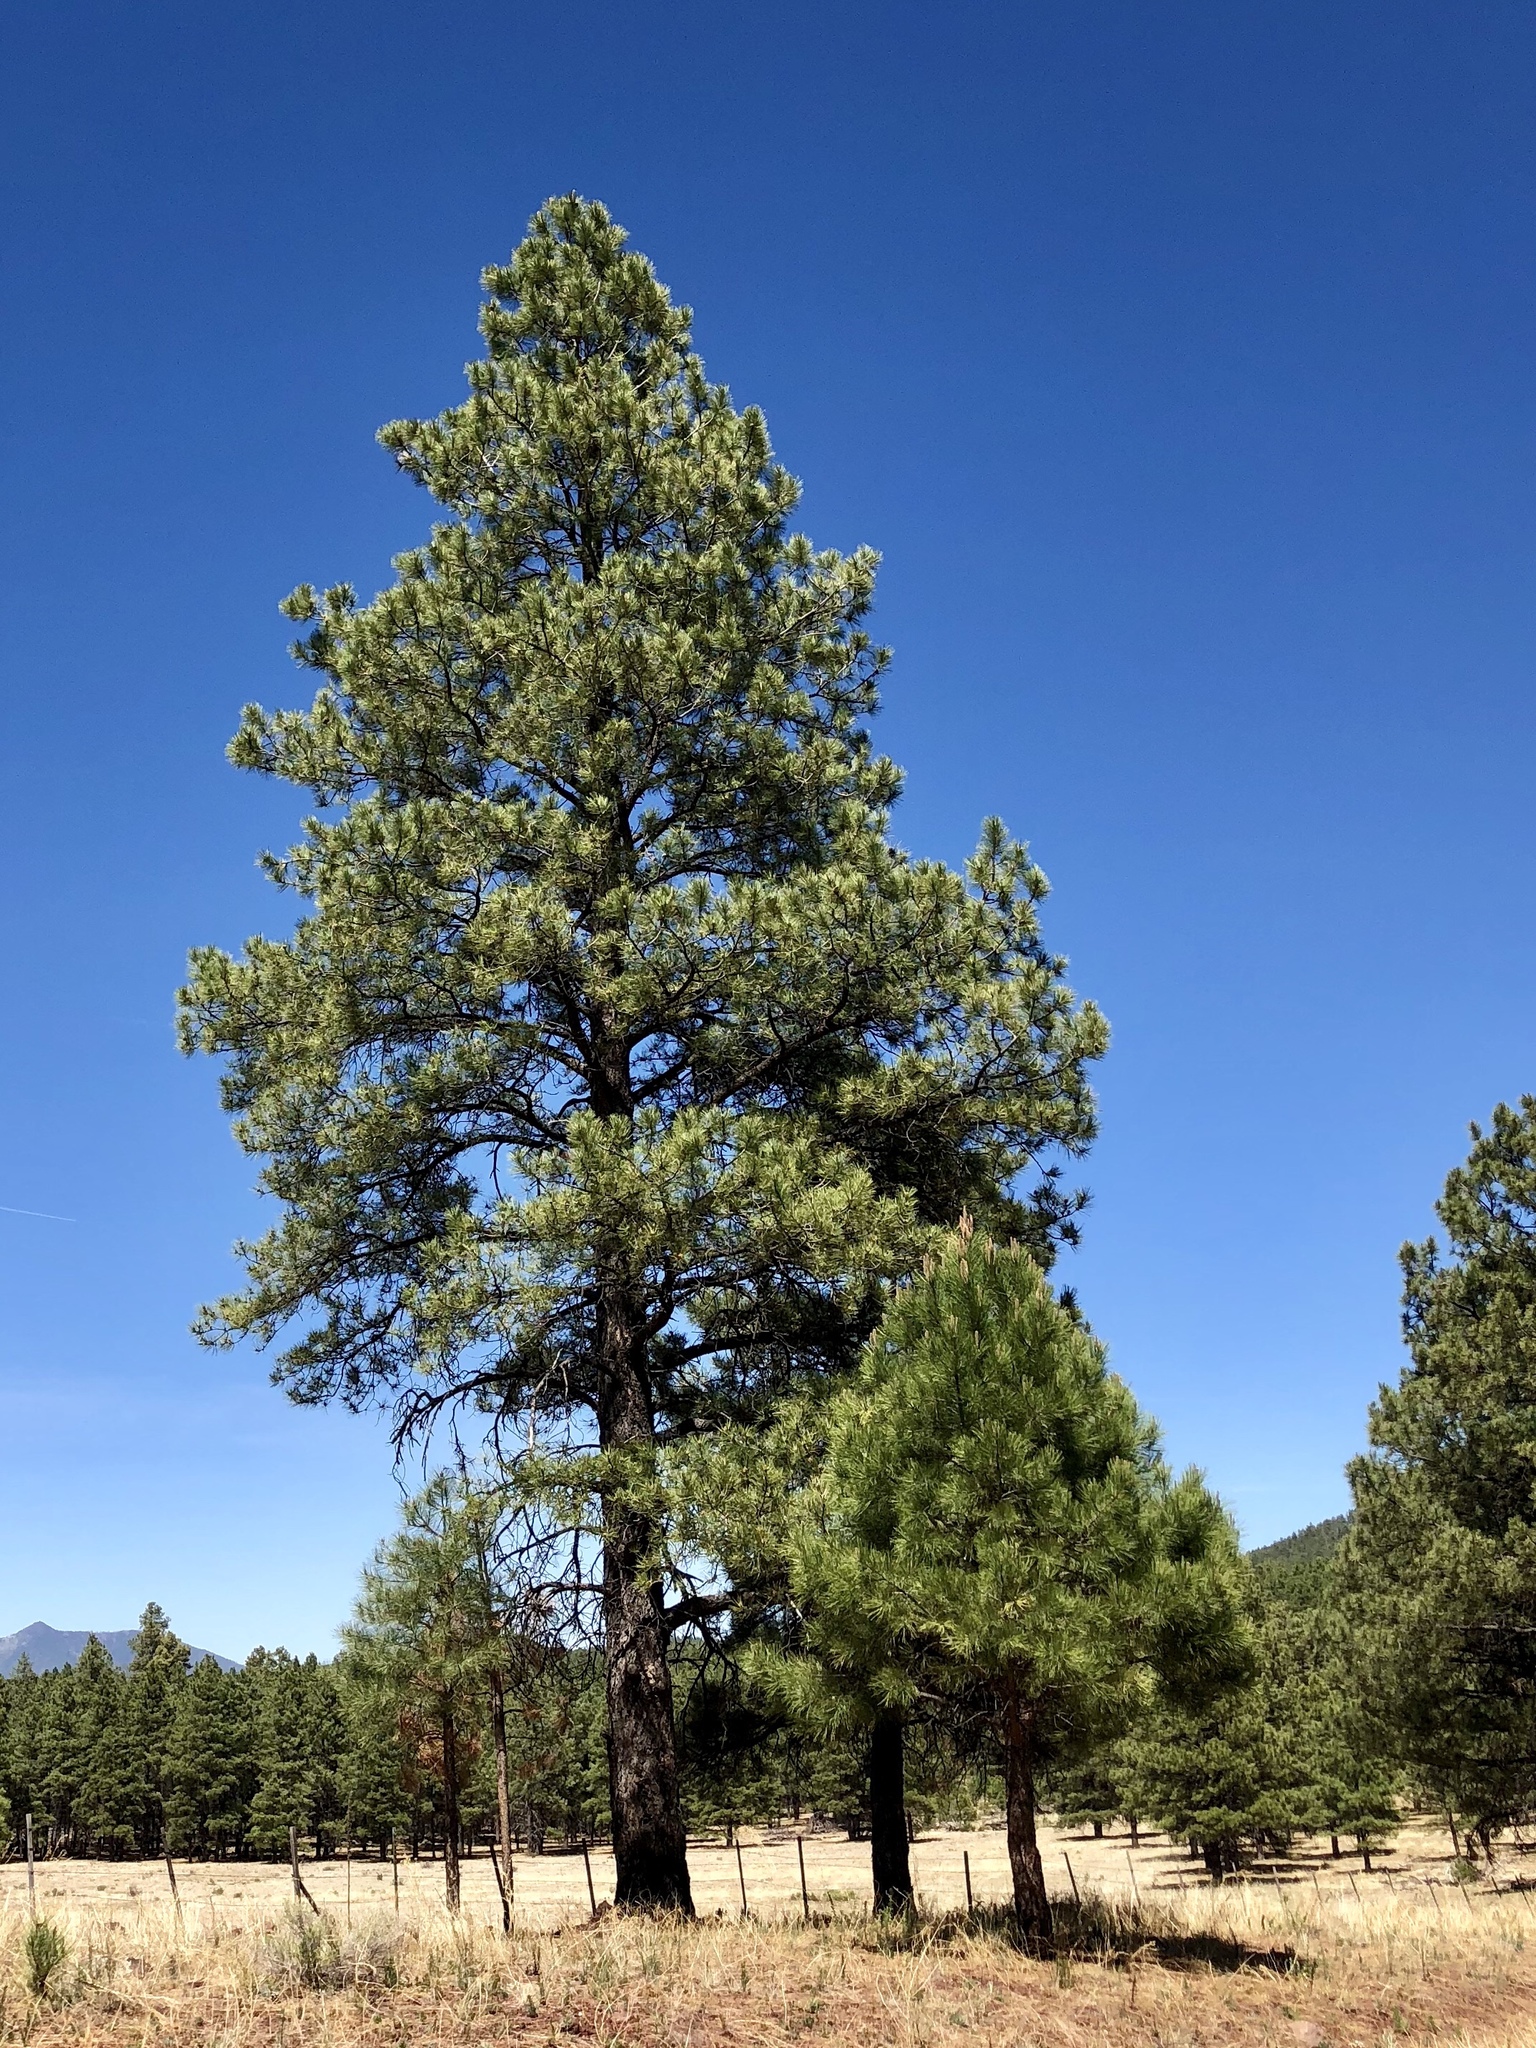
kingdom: Plantae
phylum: Tracheophyta
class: Pinopsida
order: Pinales
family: Pinaceae
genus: Pinus
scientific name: Pinus ponderosa
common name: Western yellow-pine
